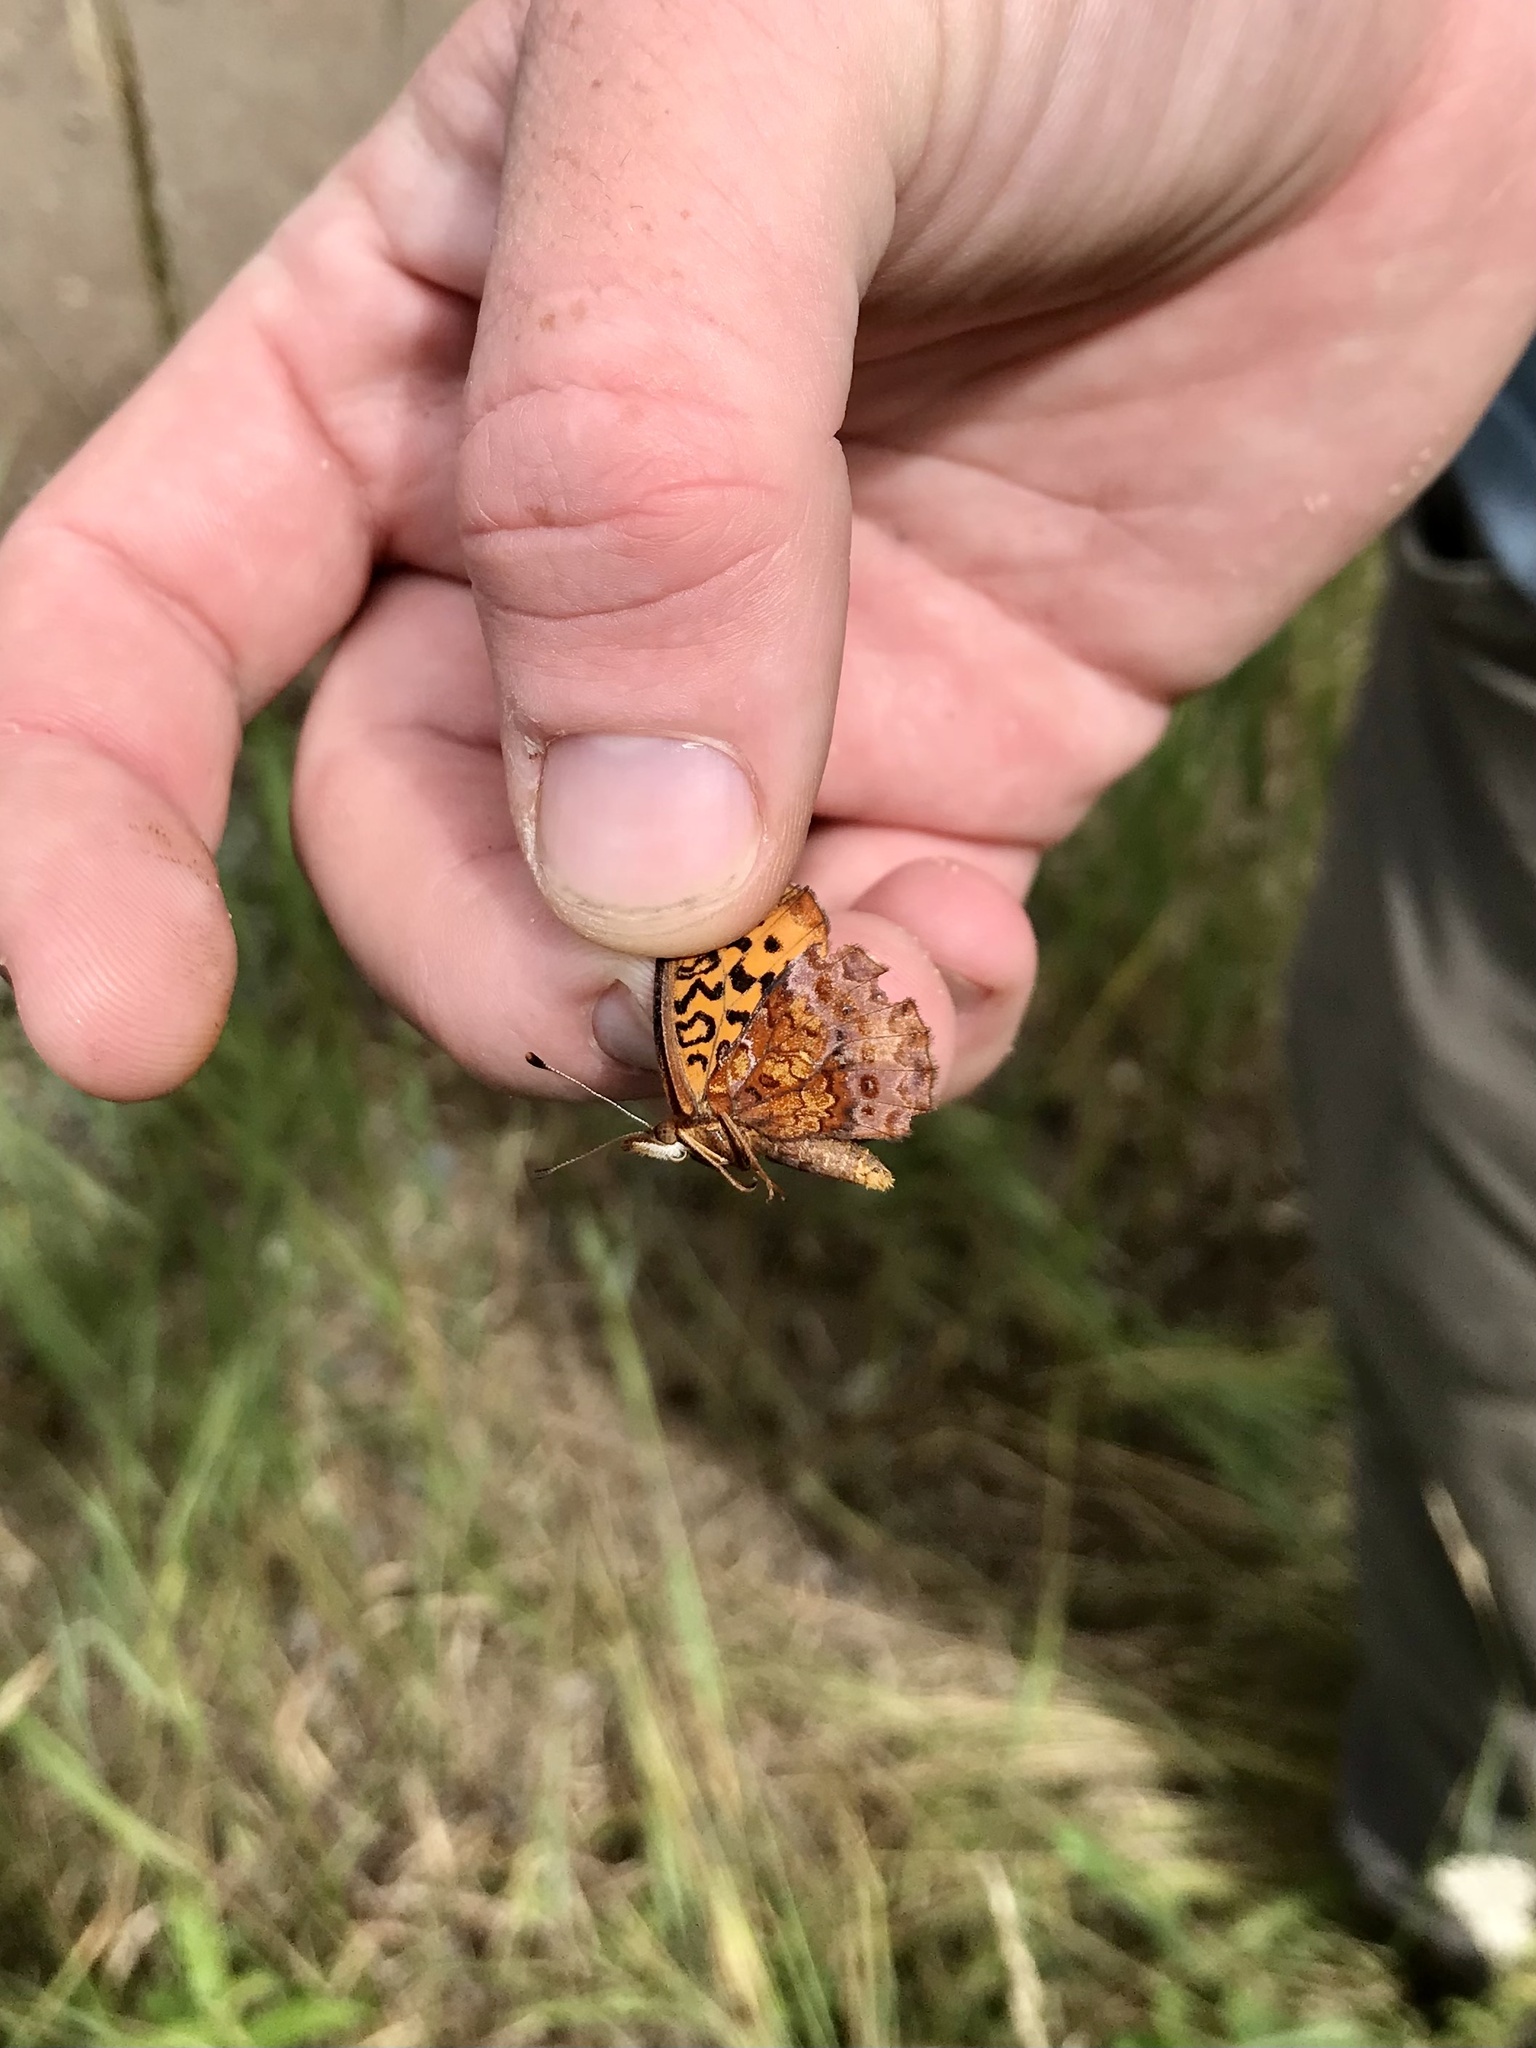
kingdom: Animalia
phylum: Arthropoda
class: Insecta
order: Lepidoptera
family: Nymphalidae
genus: Clossiana
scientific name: Clossiana toddi
